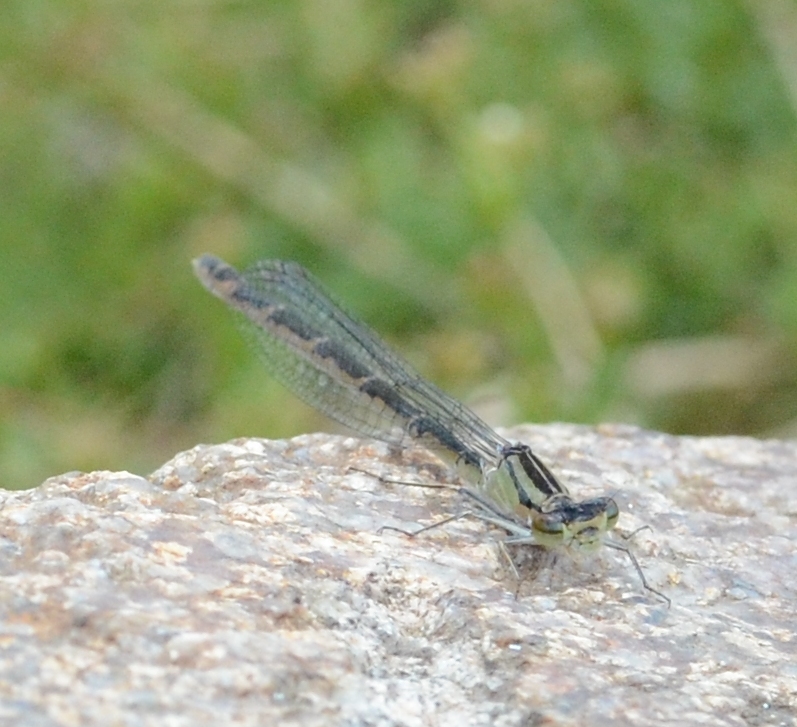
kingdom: Animalia
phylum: Arthropoda
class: Insecta
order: Odonata
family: Coenagrionidae
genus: Enallagma
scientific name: Enallagma cyathigerum
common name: Common blue damselfly
